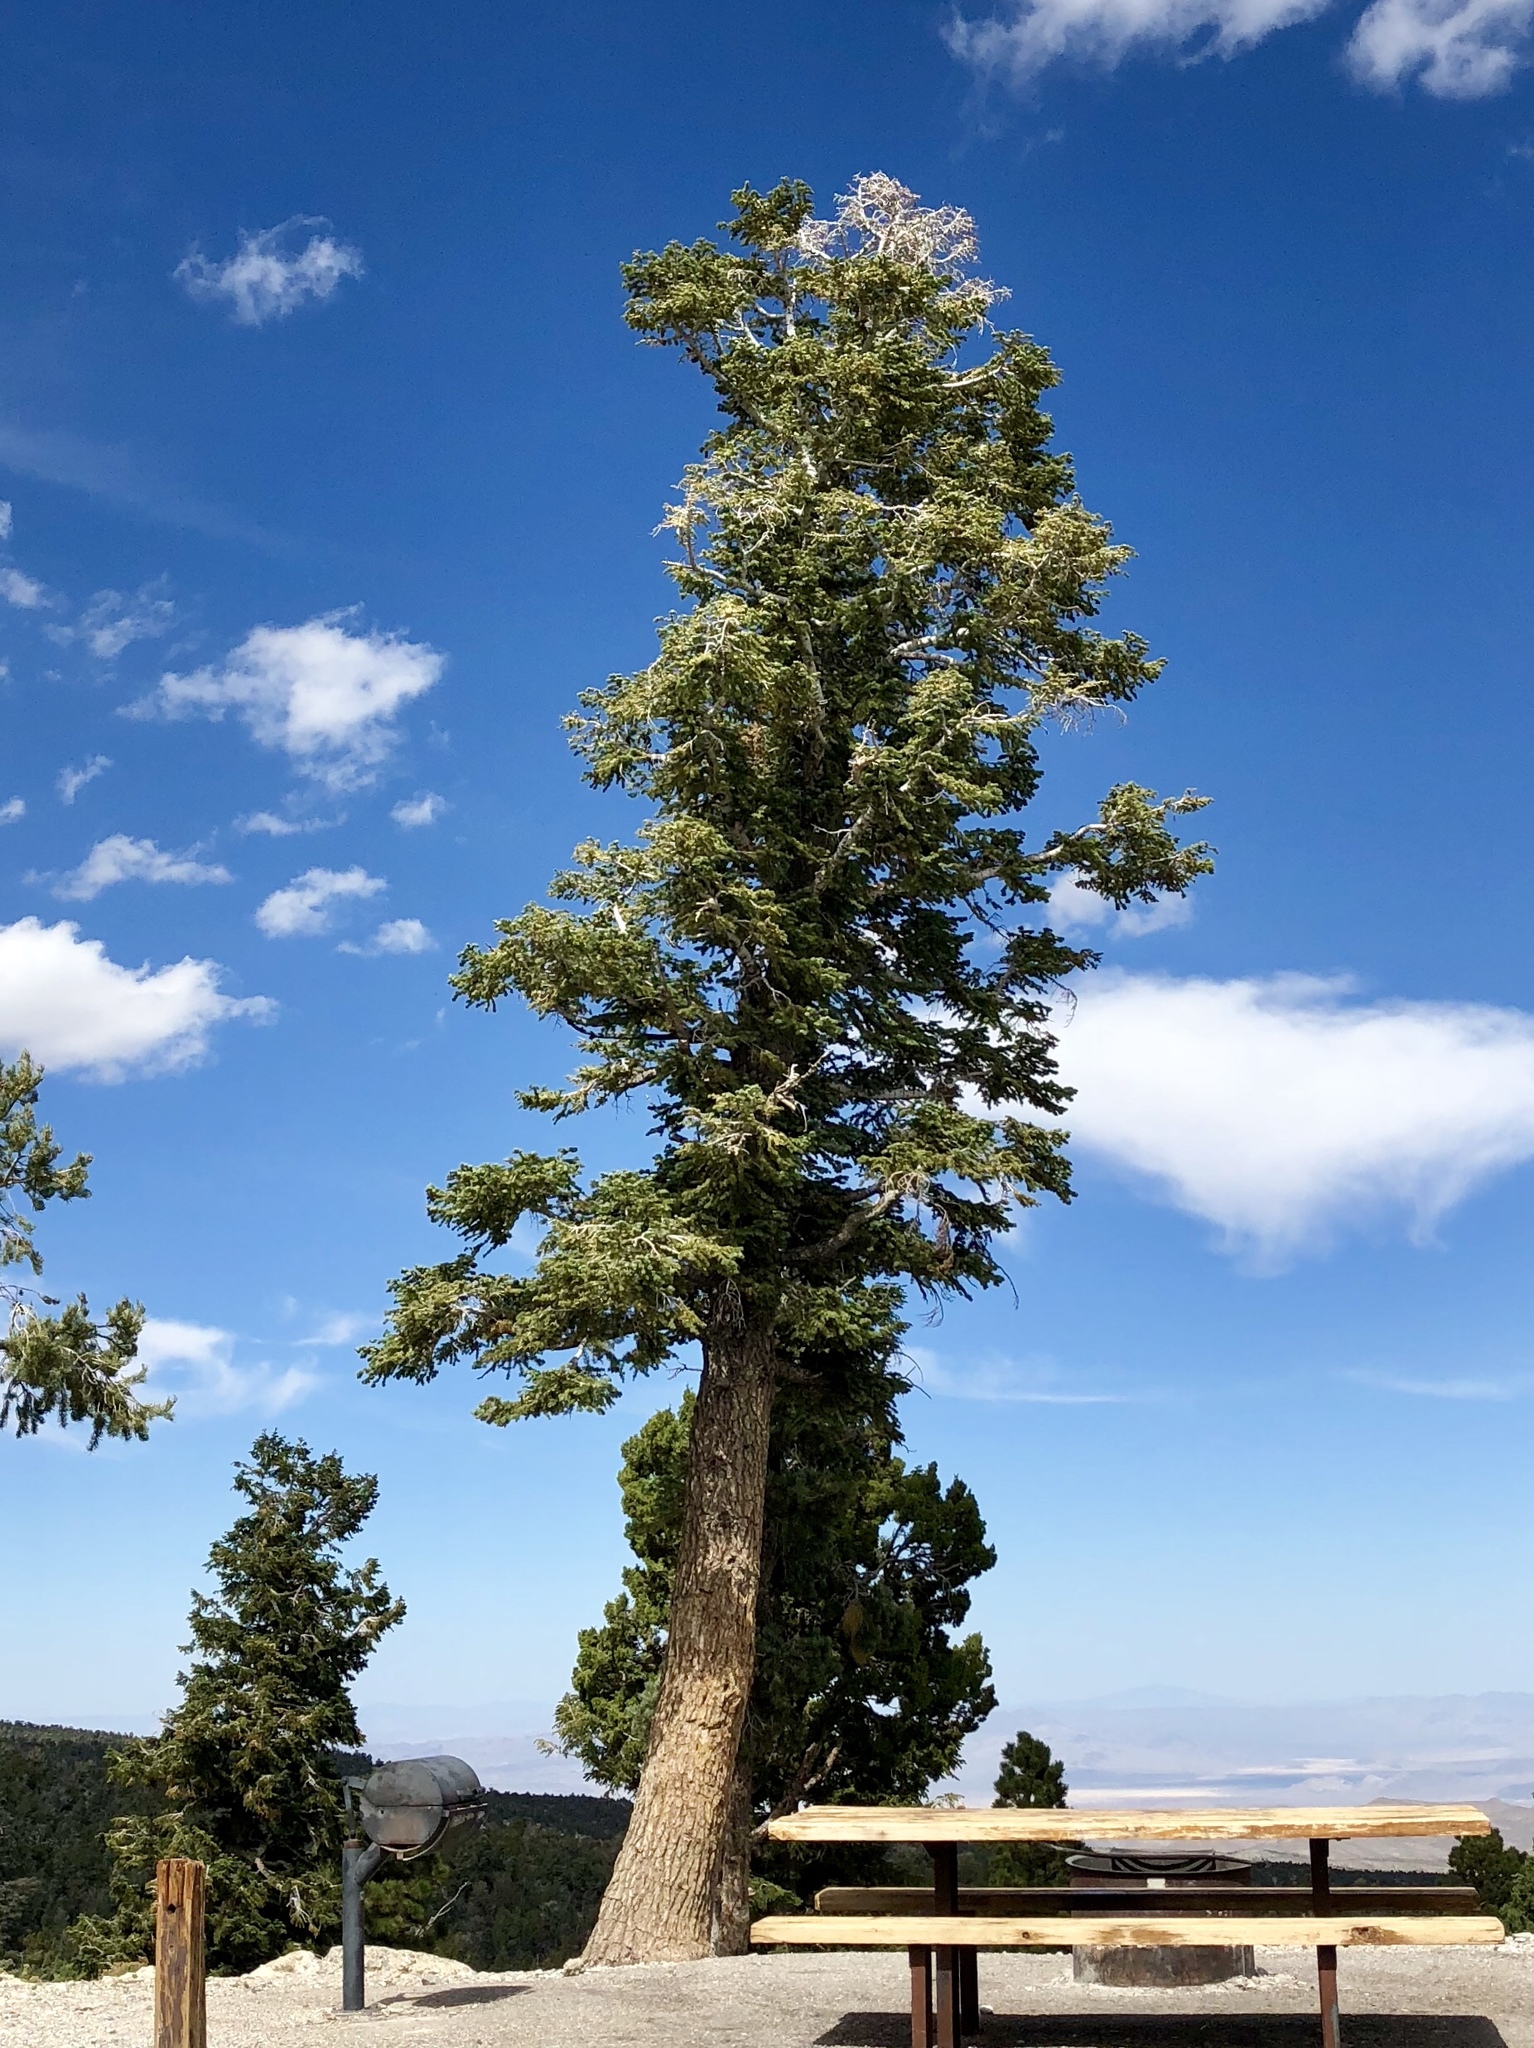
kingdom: Plantae
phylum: Tracheophyta
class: Pinopsida
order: Pinales
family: Pinaceae
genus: Abies
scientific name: Abies concolor
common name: Colorado fir
